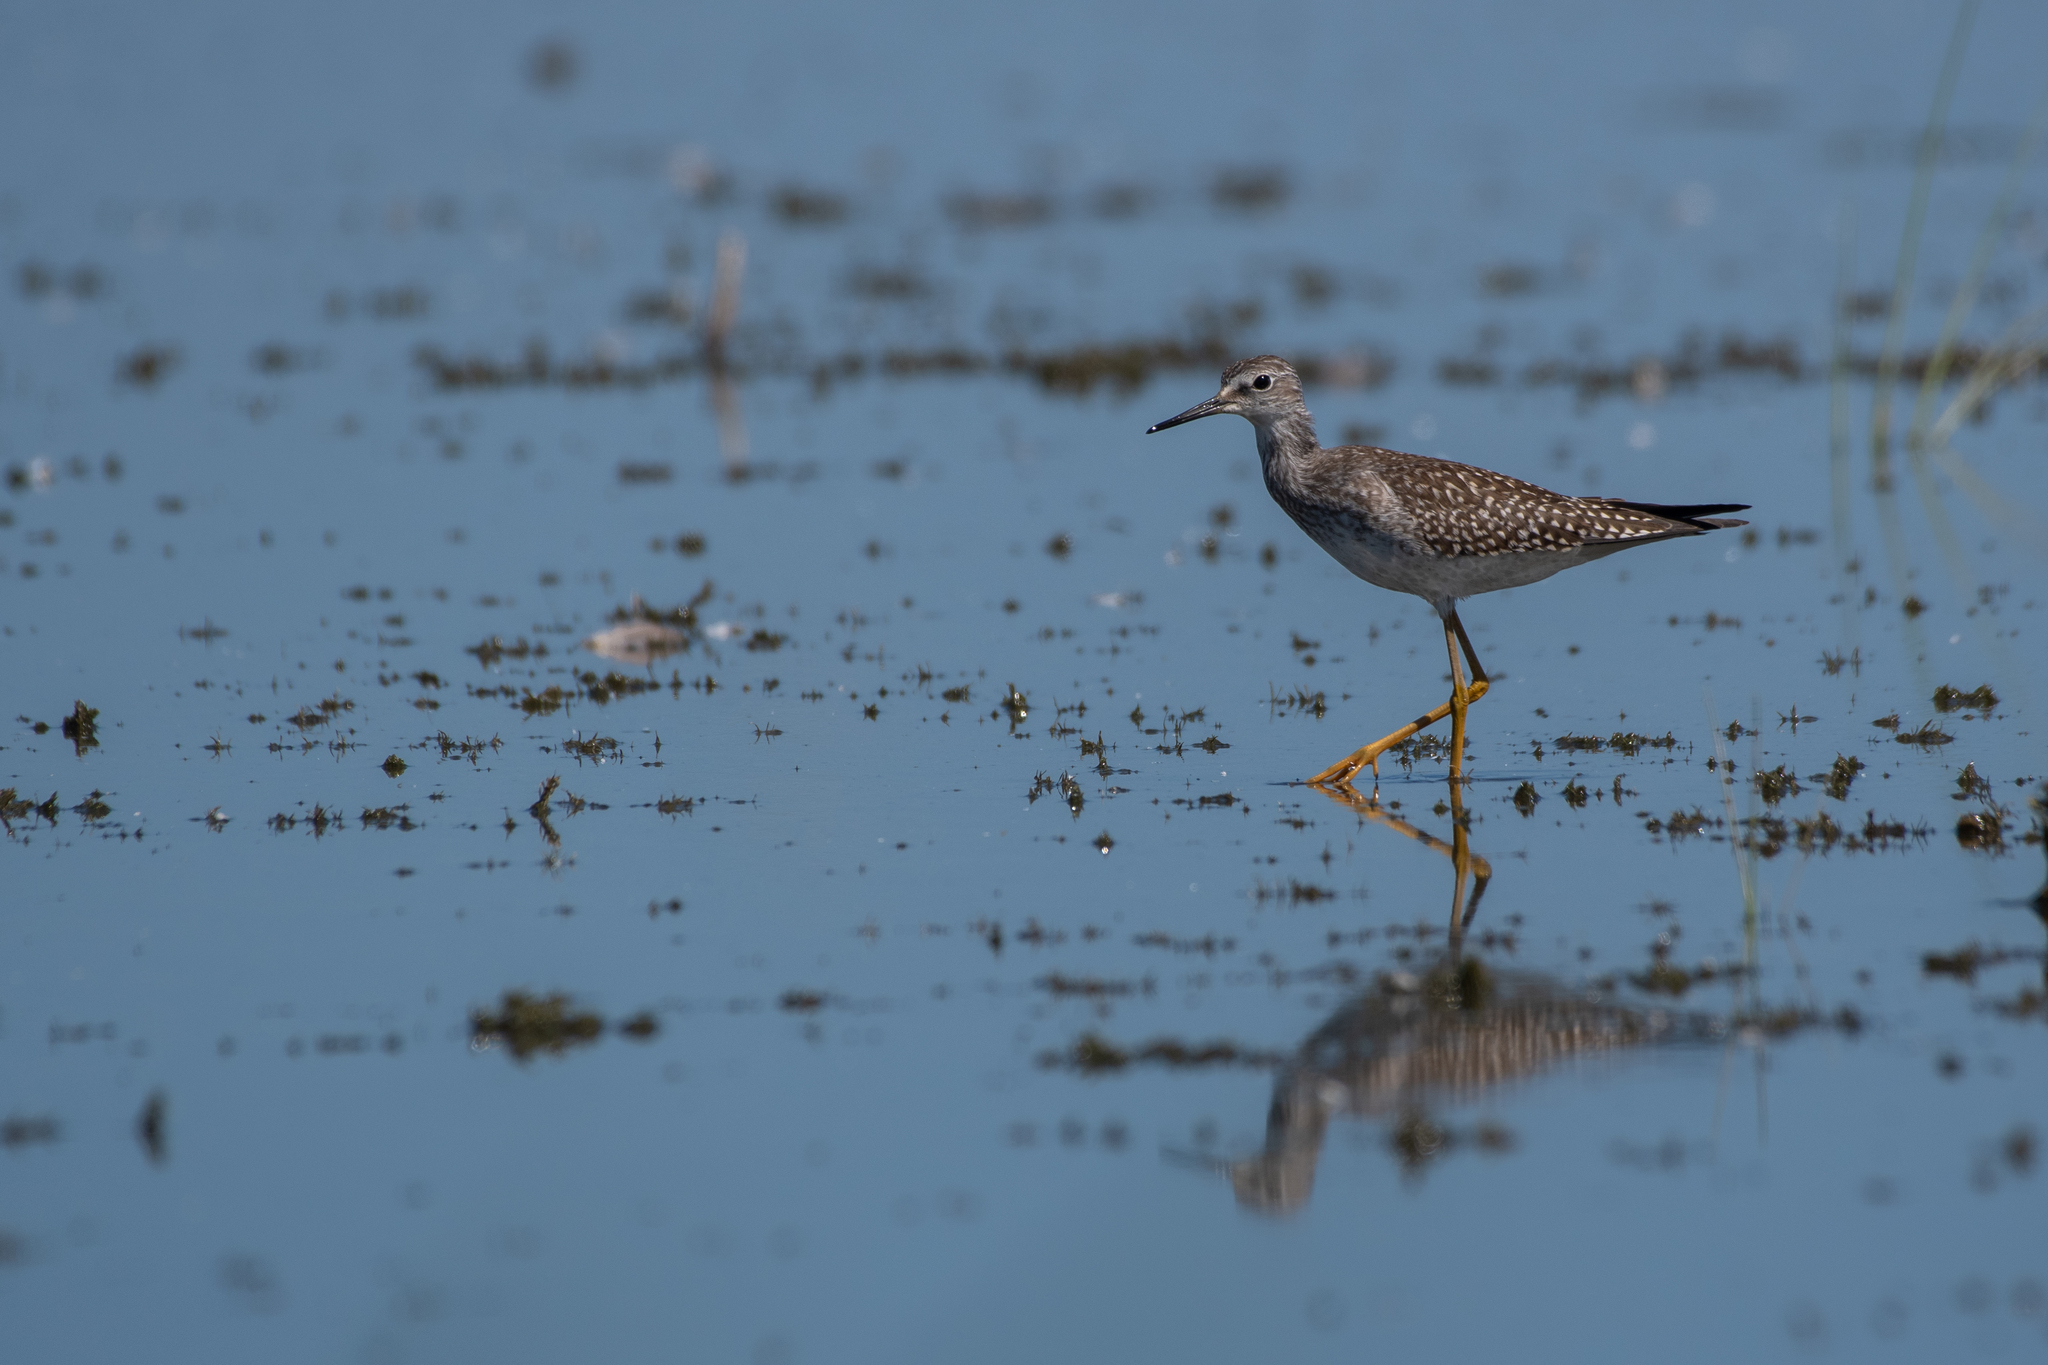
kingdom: Animalia
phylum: Chordata
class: Aves
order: Charadriiformes
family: Scolopacidae
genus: Tringa
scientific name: Tringa flavipes
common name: Lesser yellowlegs
